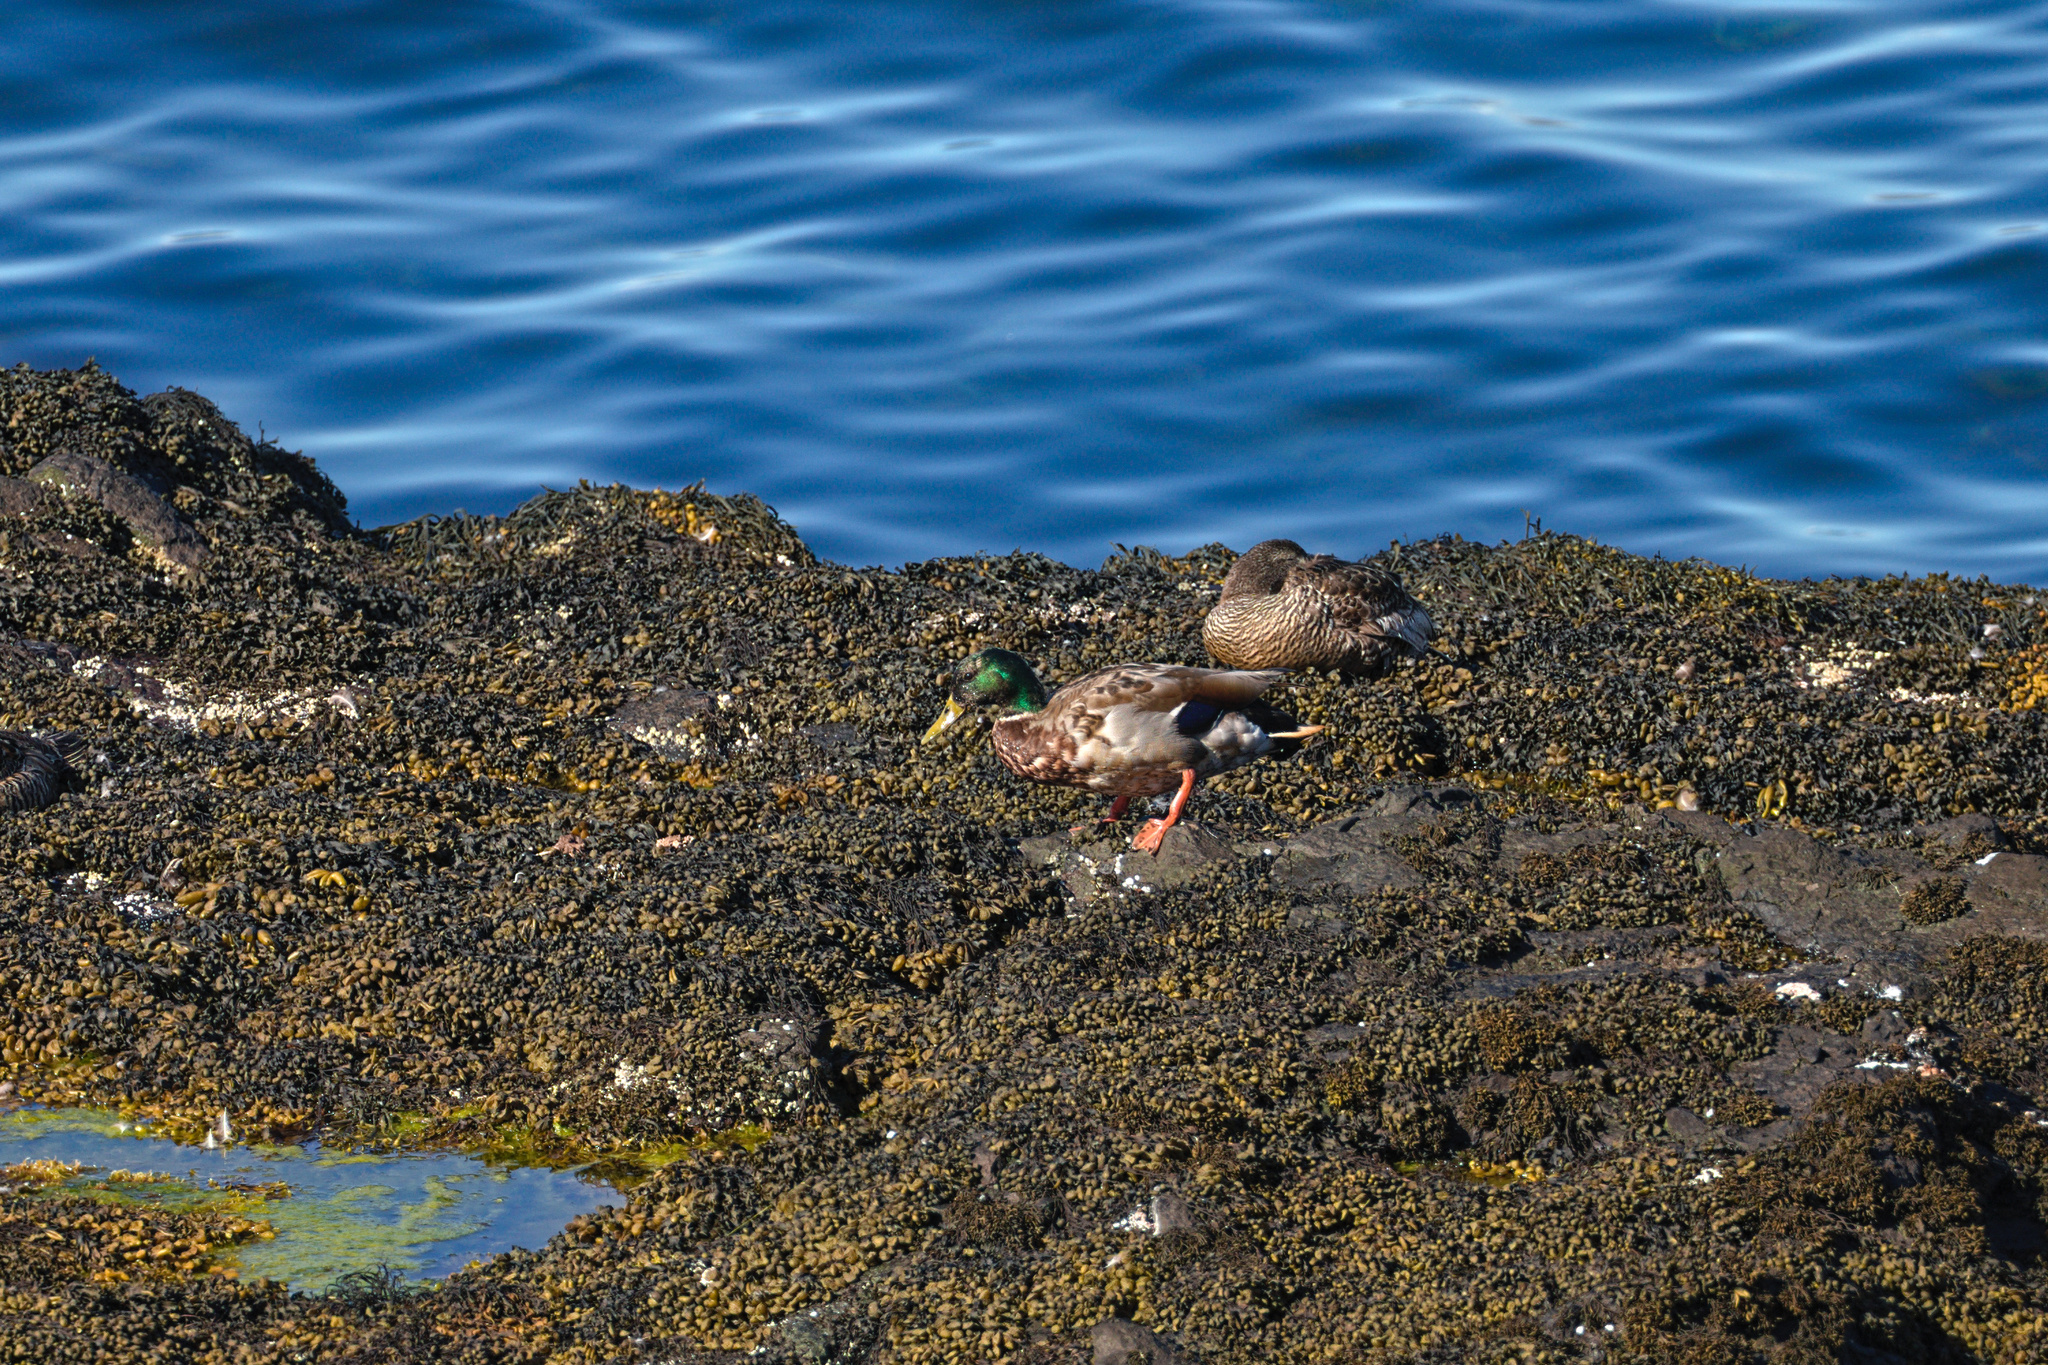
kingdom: Animalia
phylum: Chordata
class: Aves
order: Anseriformes
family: Anatidae
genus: Anas
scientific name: Anas platyrhynchos
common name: Mallard
